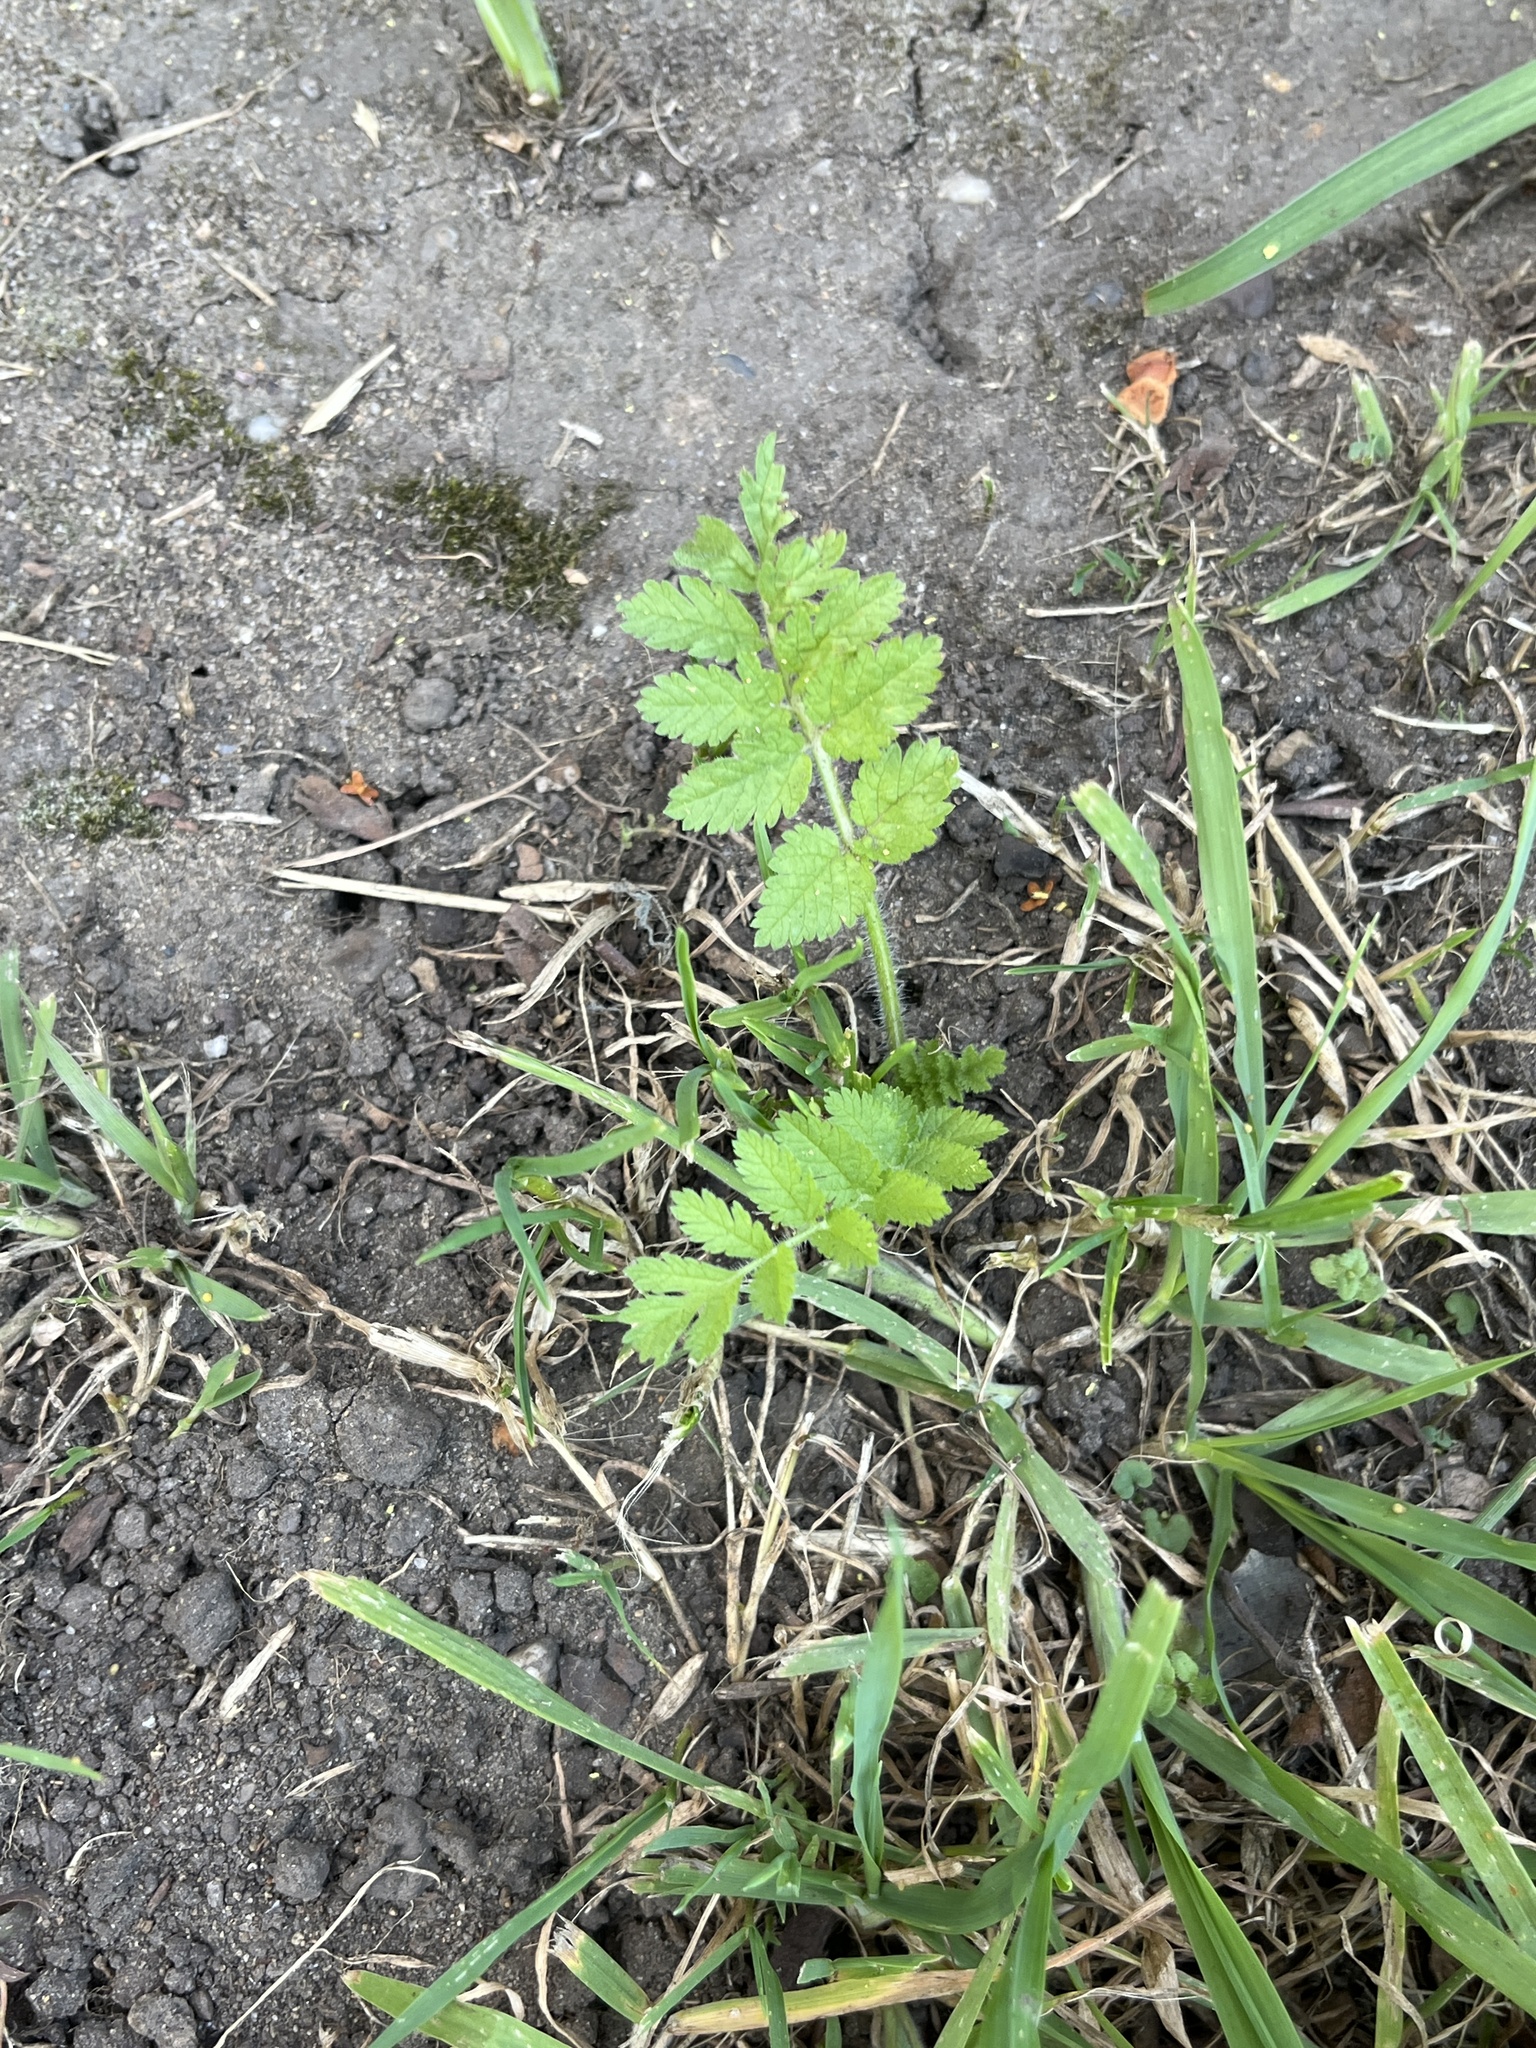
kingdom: Plantae
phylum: Tracheophyta
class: Magnoliopsida
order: Geraniales
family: Geraniaceae
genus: Erodium
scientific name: Erodium moschatum
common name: Musk stork's-bill
